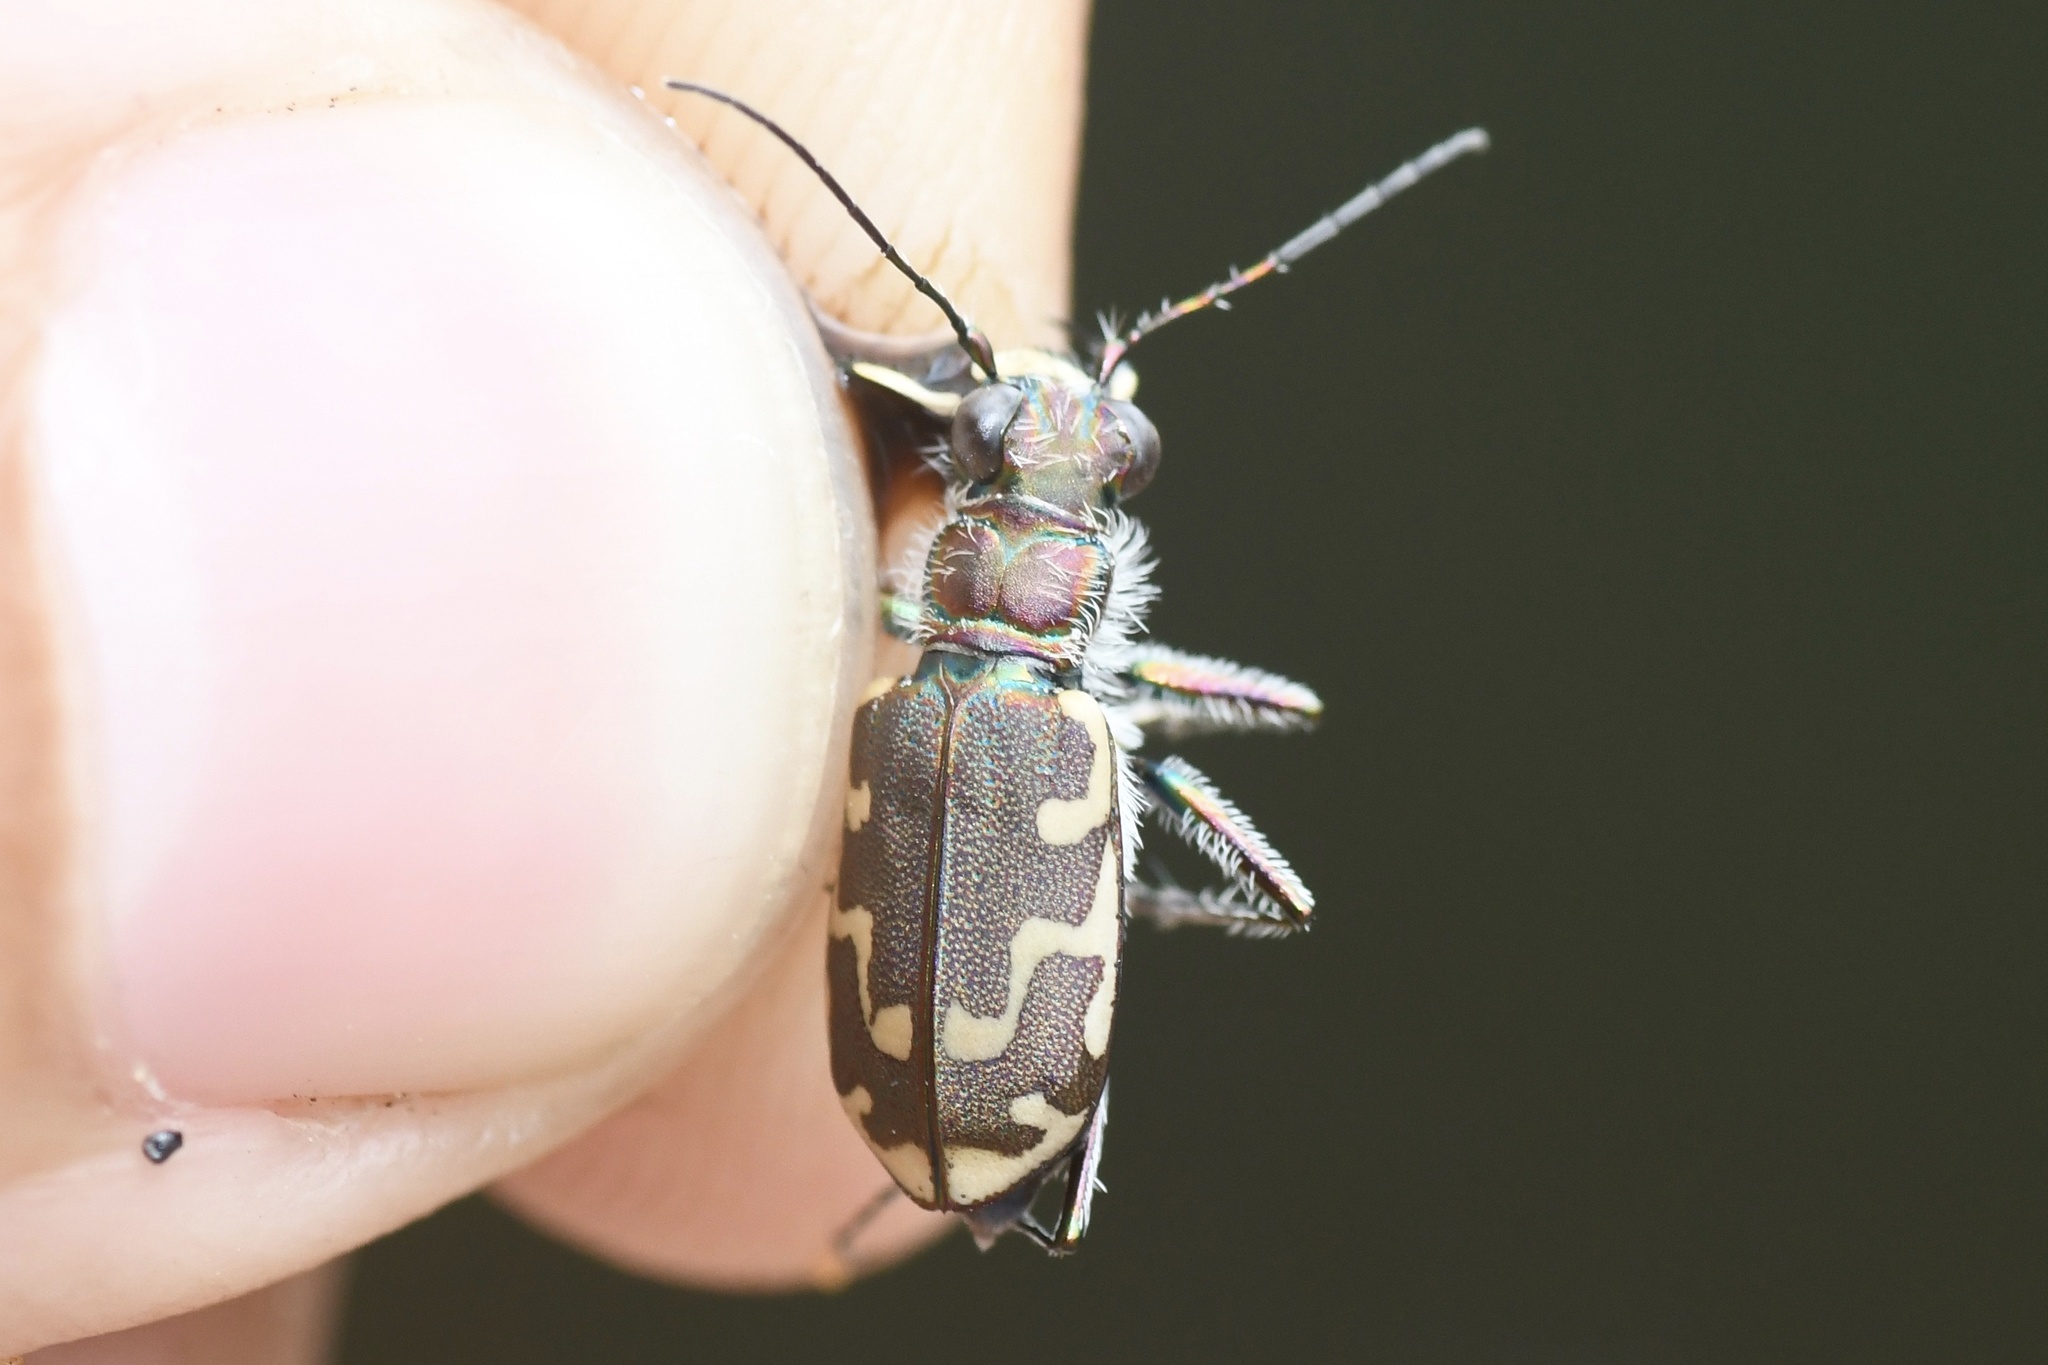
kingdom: Animalia
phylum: Arthropoda
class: Insecta
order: Coleoptera
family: Carabidae
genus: Cicindela
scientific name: Cicindela repanda
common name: Bronzed tiger beetle
